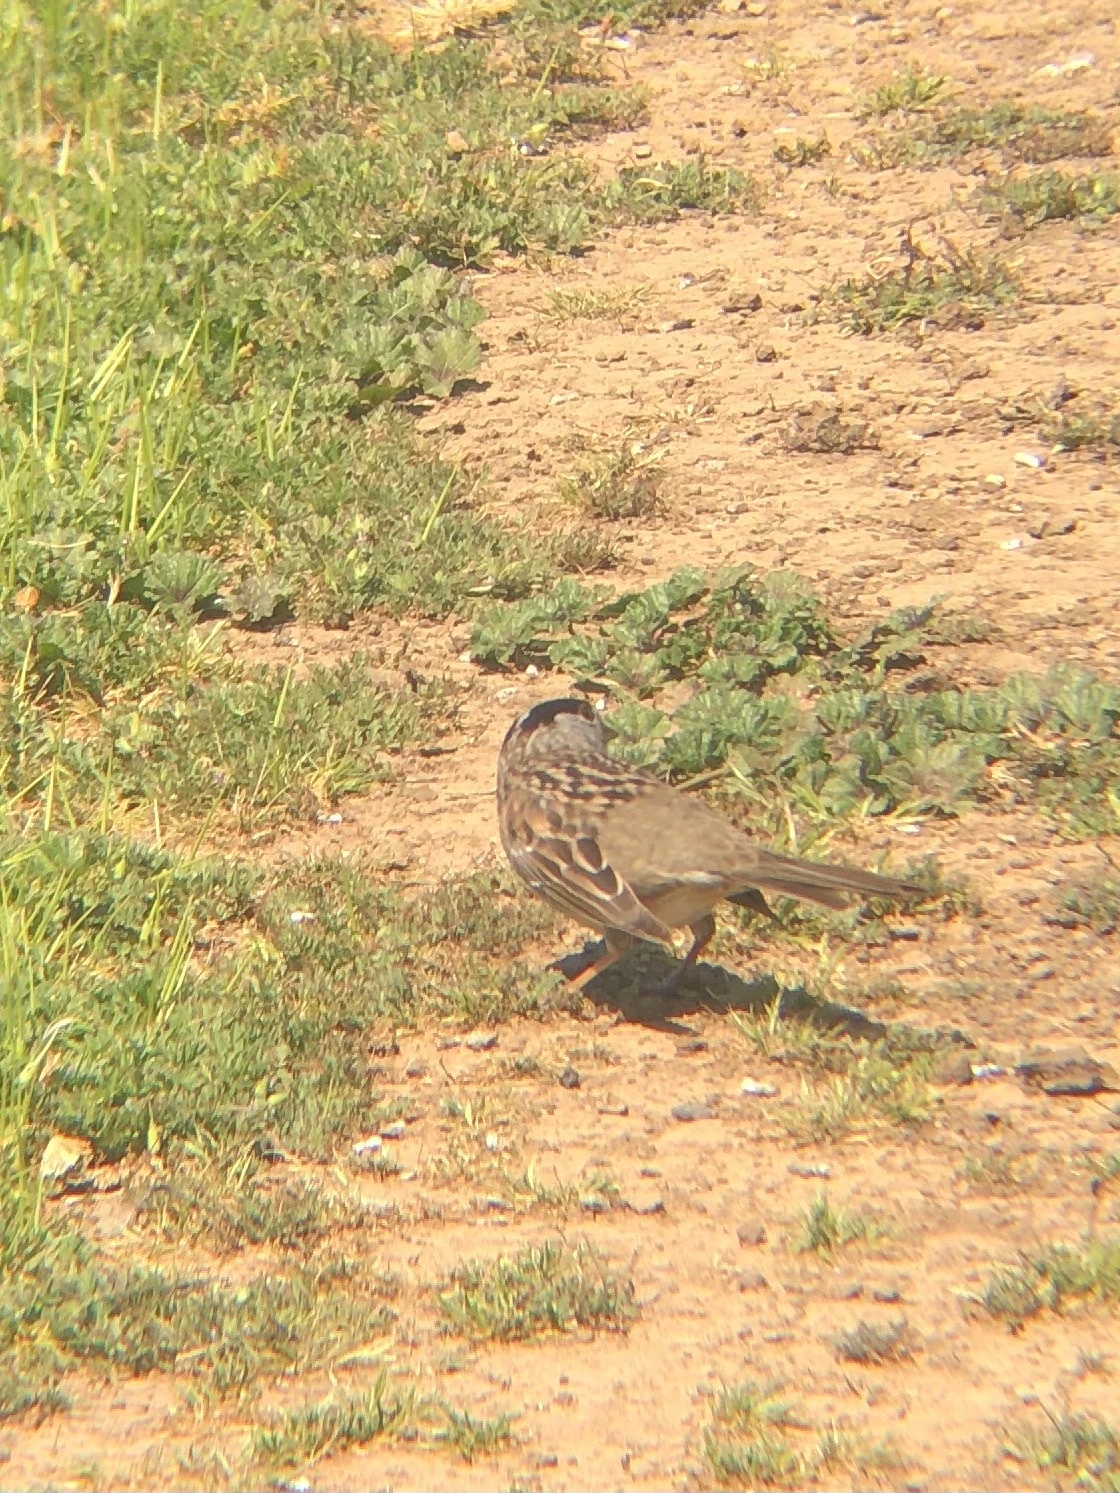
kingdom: Animalia
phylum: Chordata
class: Aves
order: Passeriformes
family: Passerellidae
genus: Zonotrichia
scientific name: Zonotrichia atricapilla
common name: Golden-crowned sparrow
